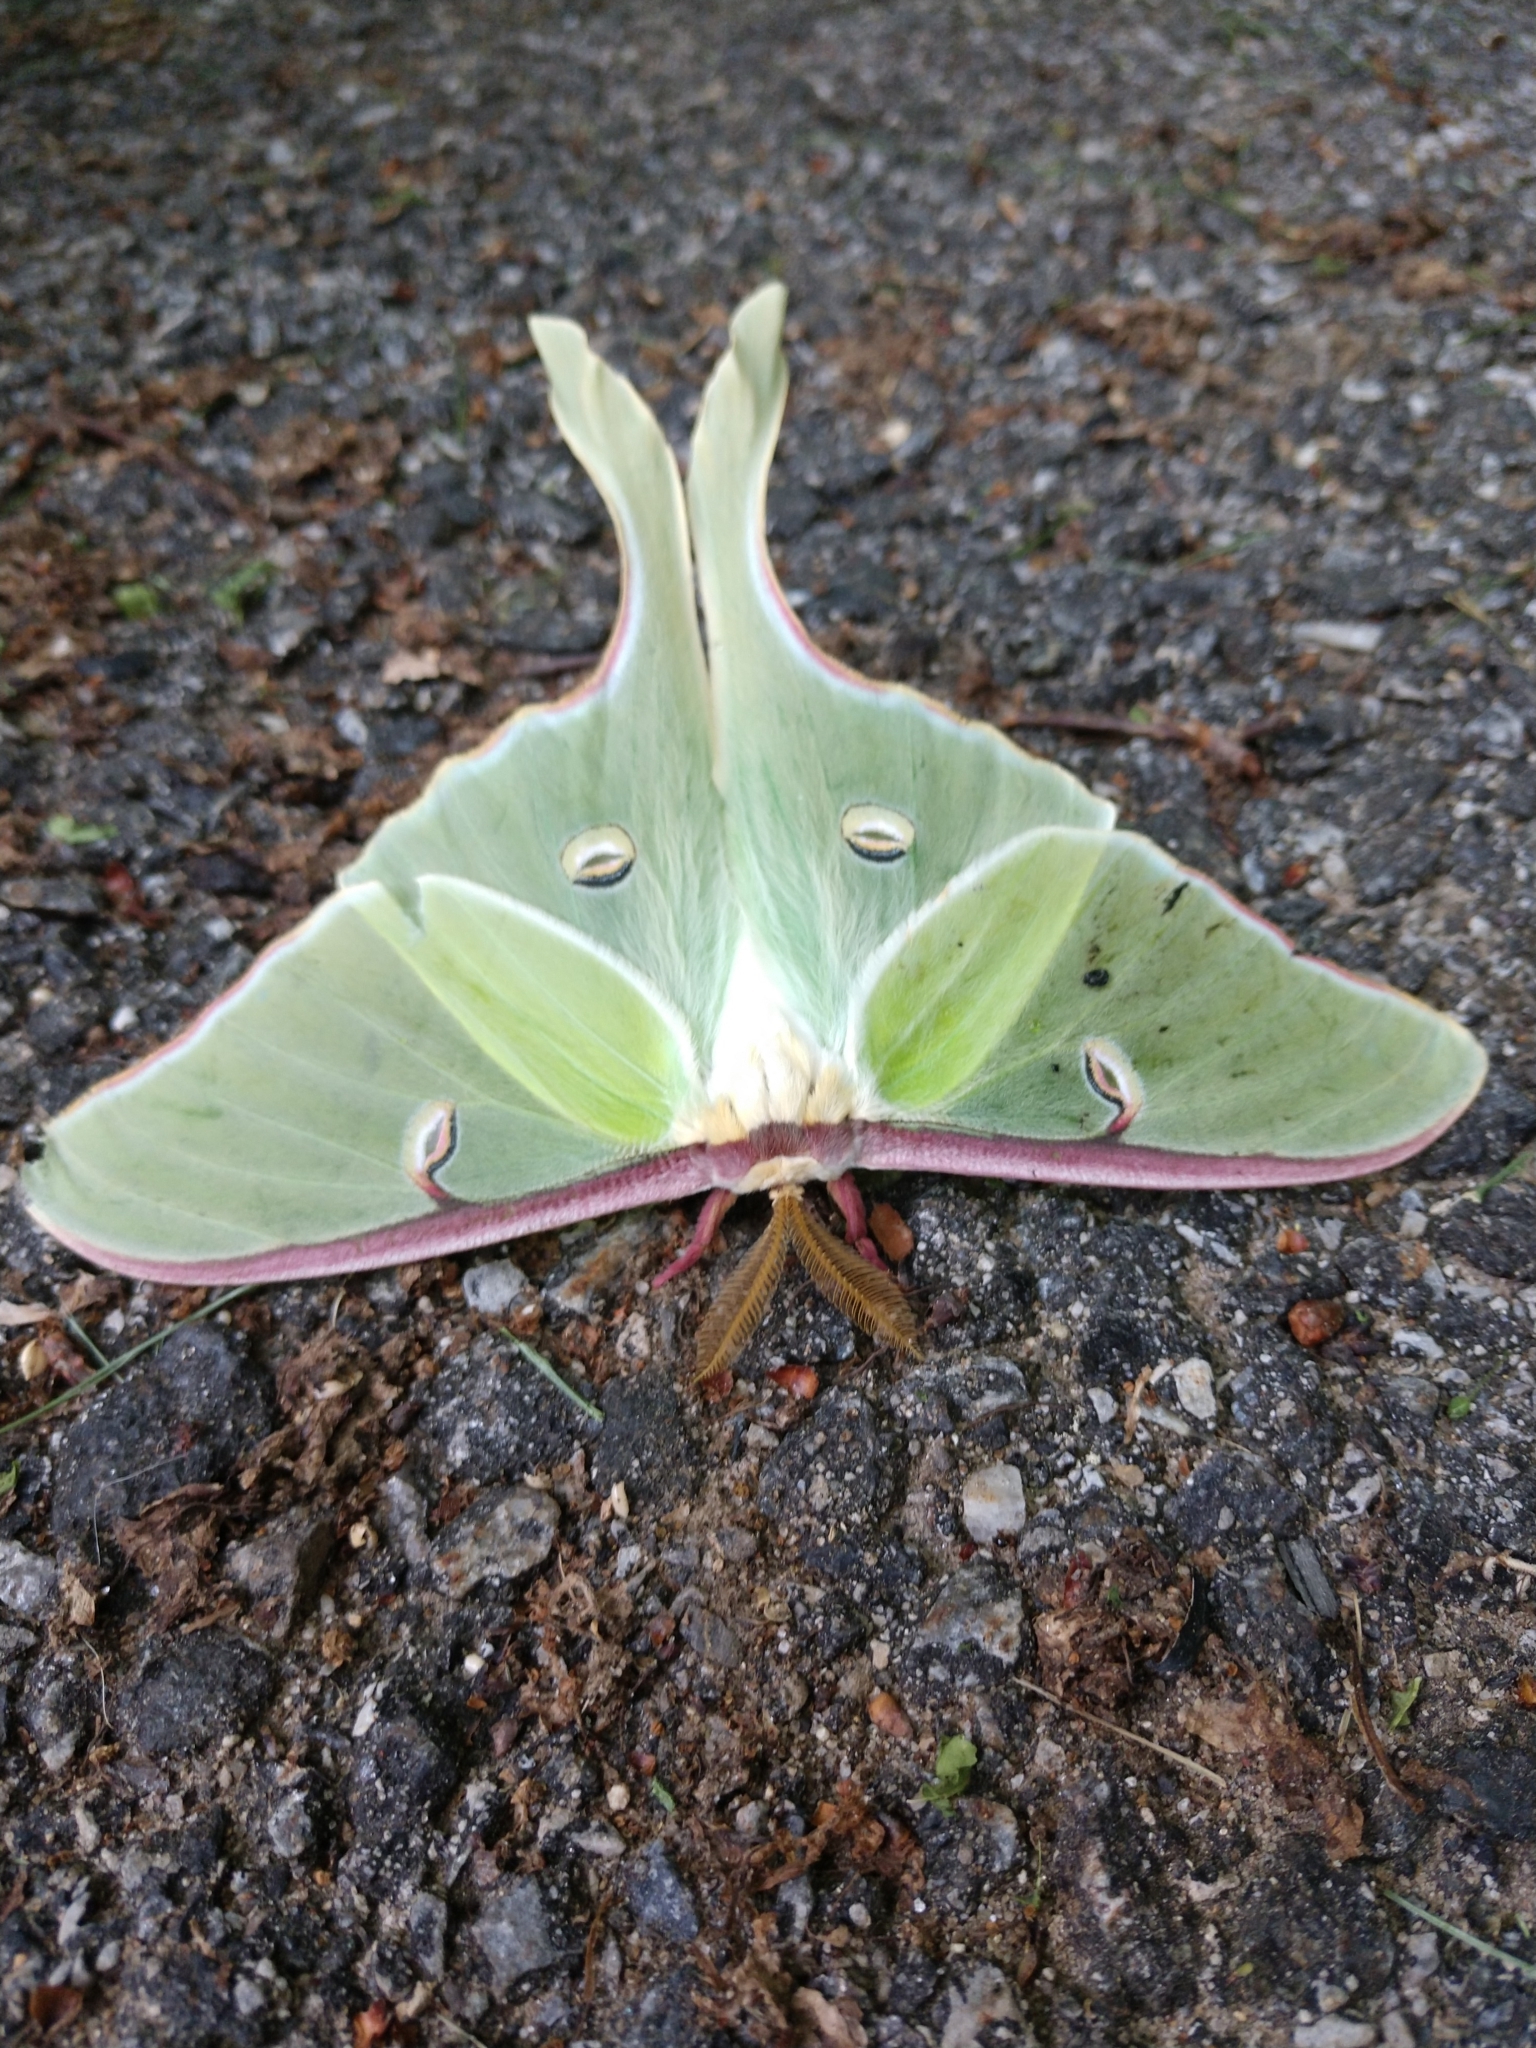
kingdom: Animalia
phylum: Arthropoda
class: Insecta
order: Lepidoptera
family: Saturniidae
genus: Actias
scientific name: Actias luna
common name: Luna moth
